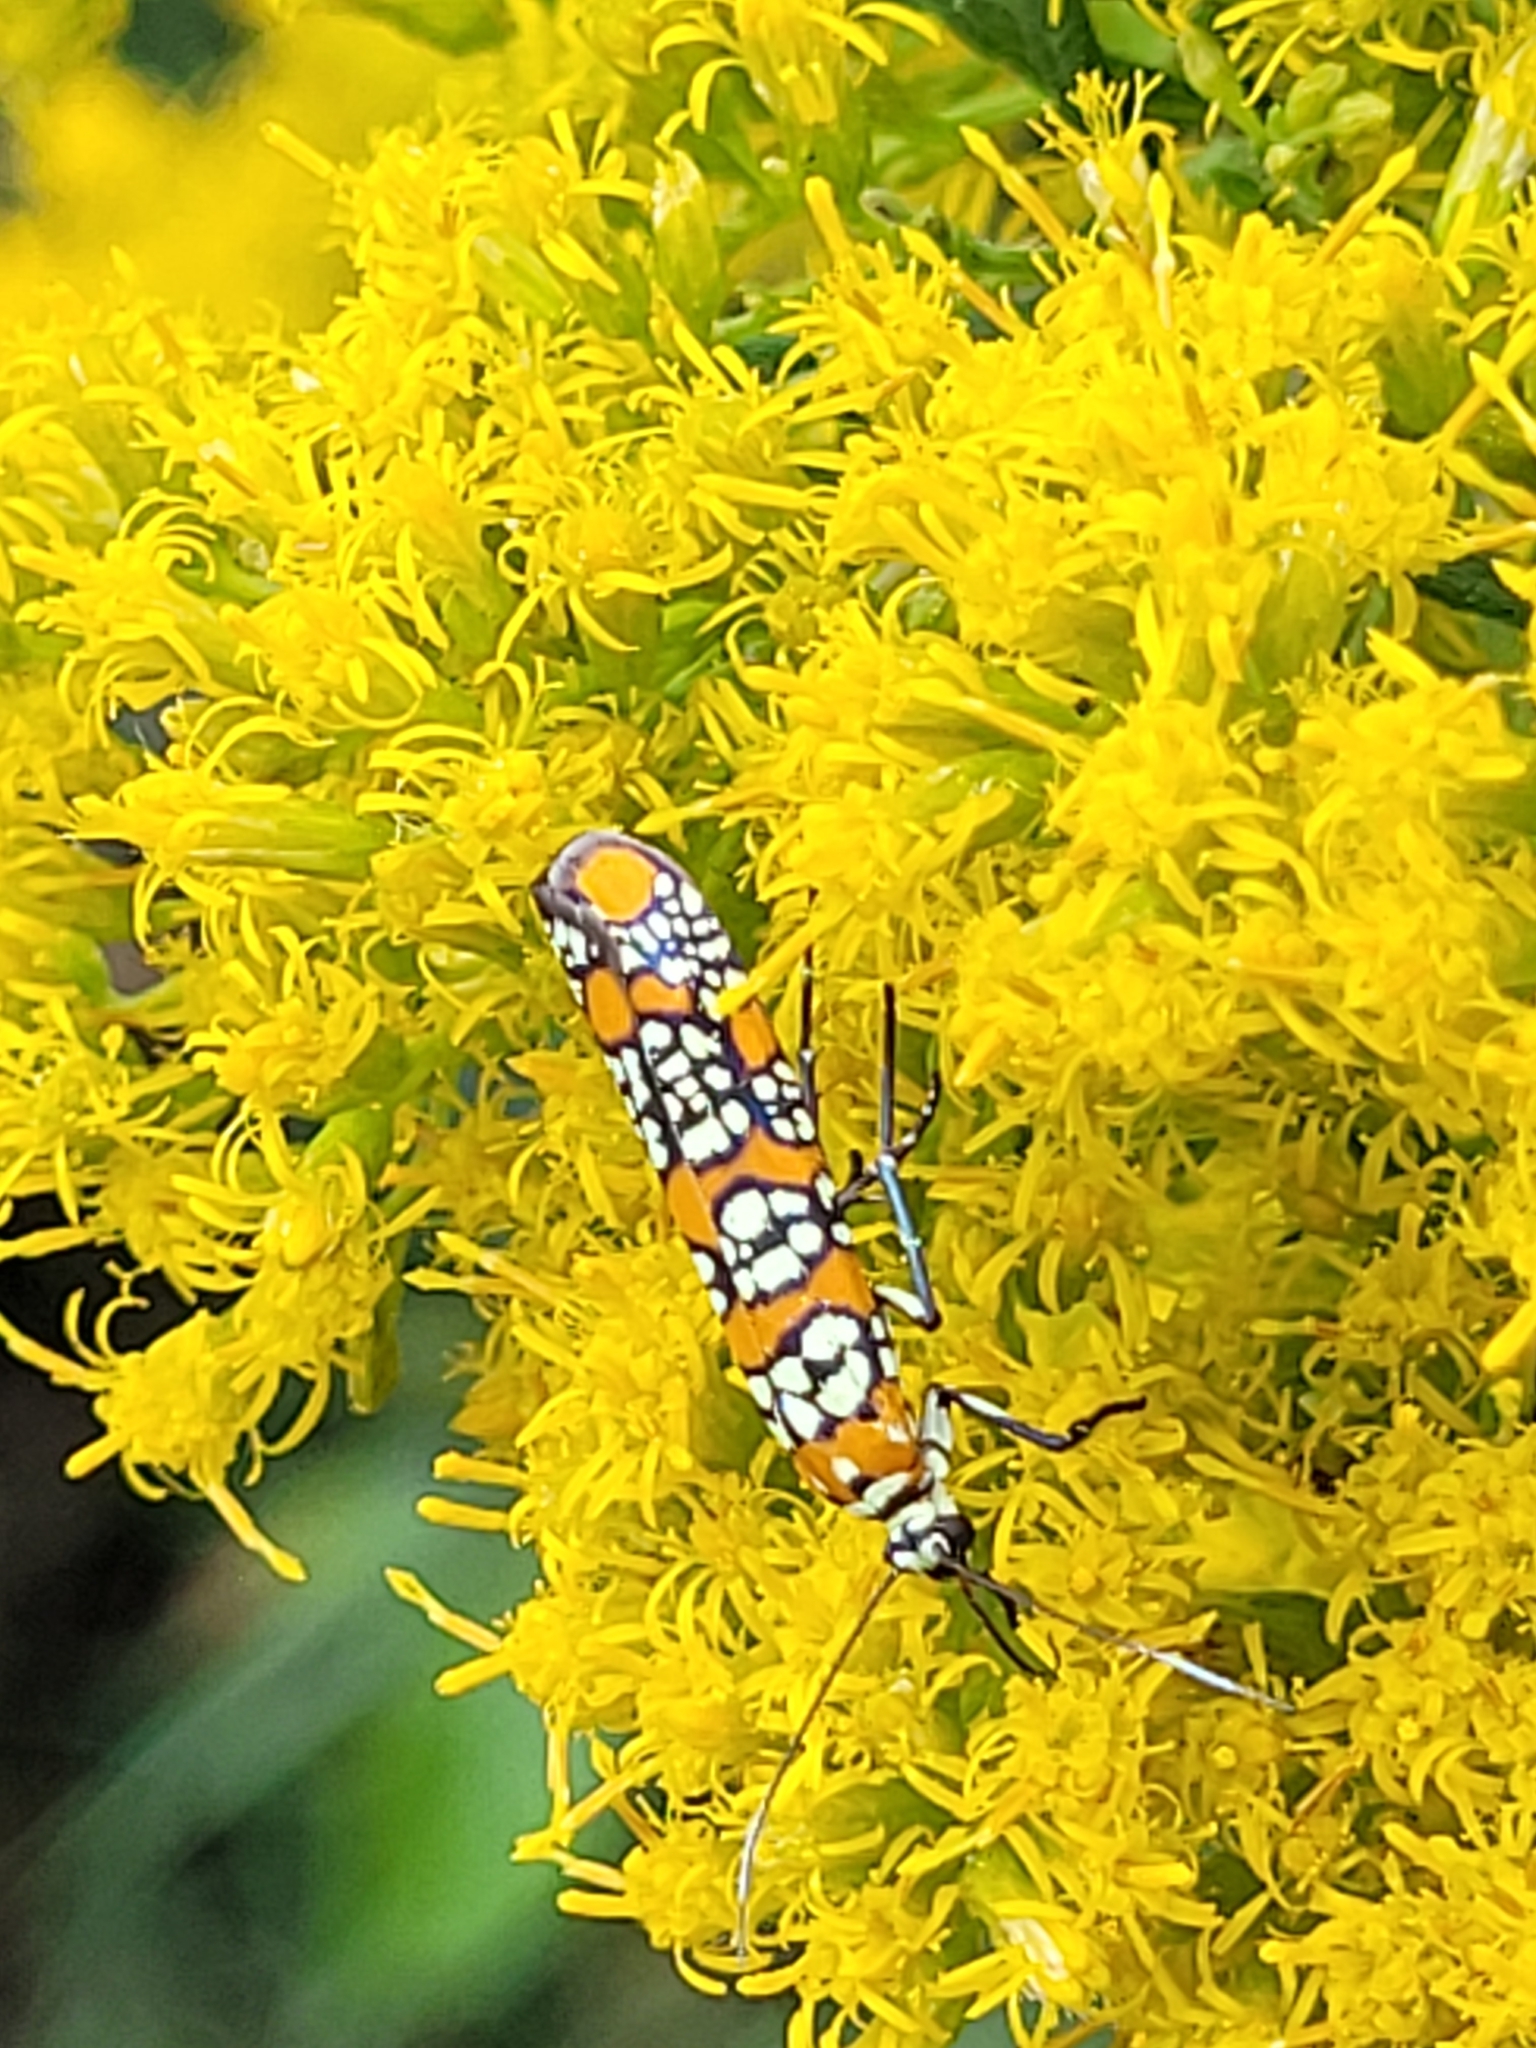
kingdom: Animalia
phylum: Arthropoda
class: Insecta
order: Lepidoptera
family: Attevidae
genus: Atteva
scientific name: Atteva punctella
